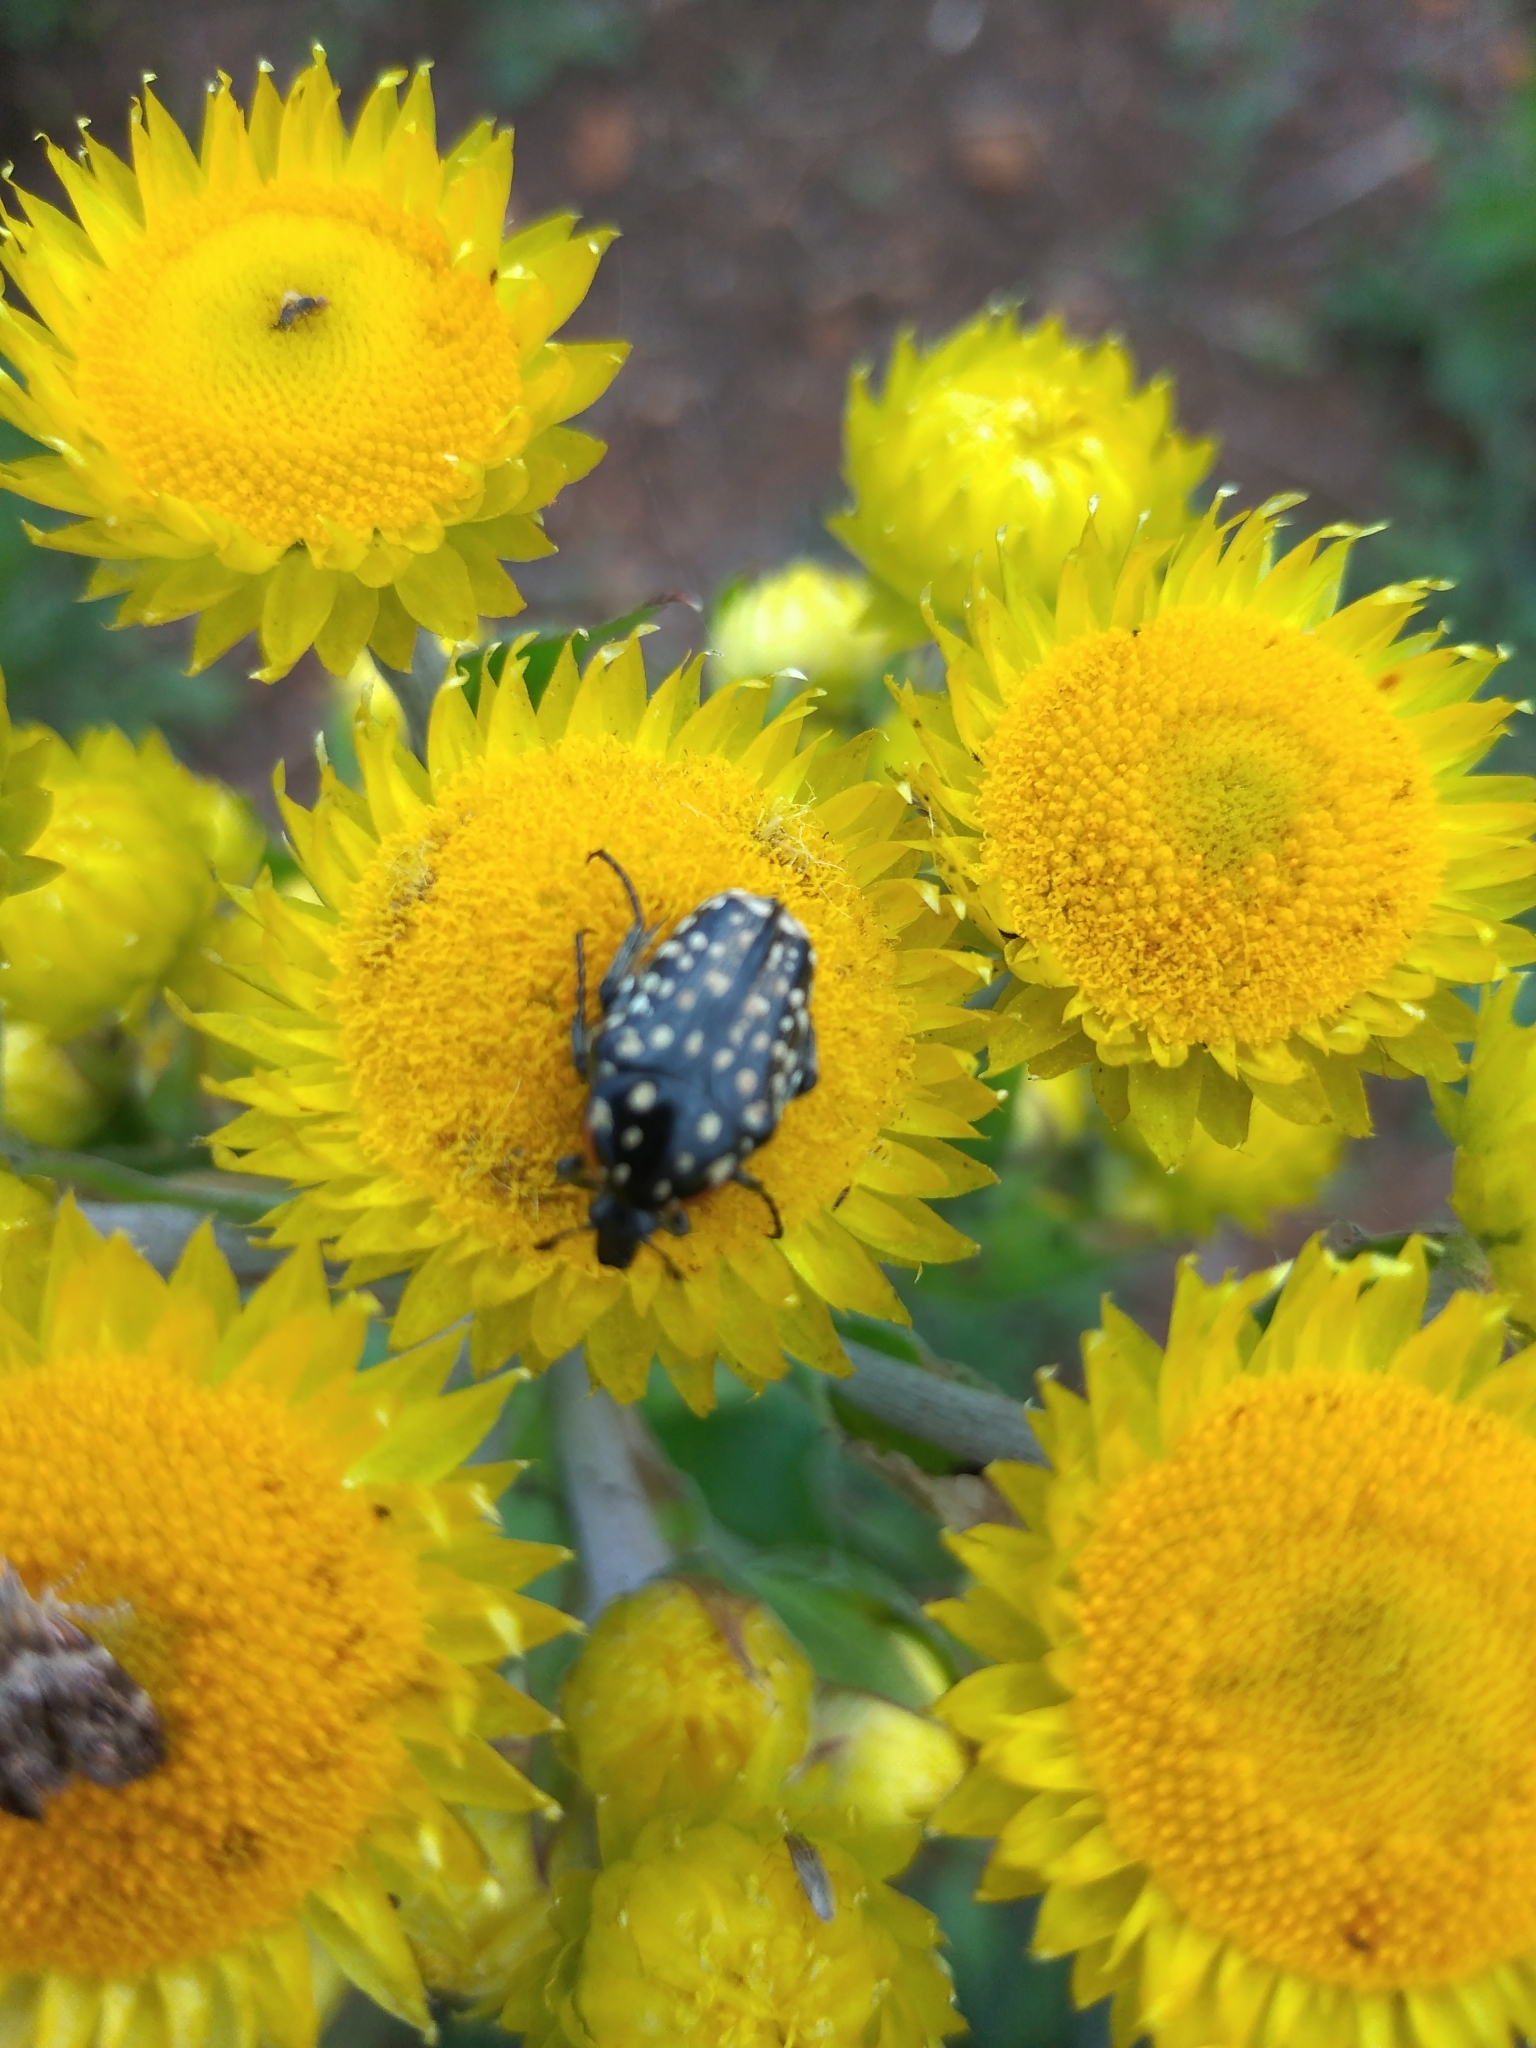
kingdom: Animalia
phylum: Arthropoda
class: Insecta
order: Coleoptera
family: Scarabaeidae
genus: Oxythyrea
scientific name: Oxythyrea
